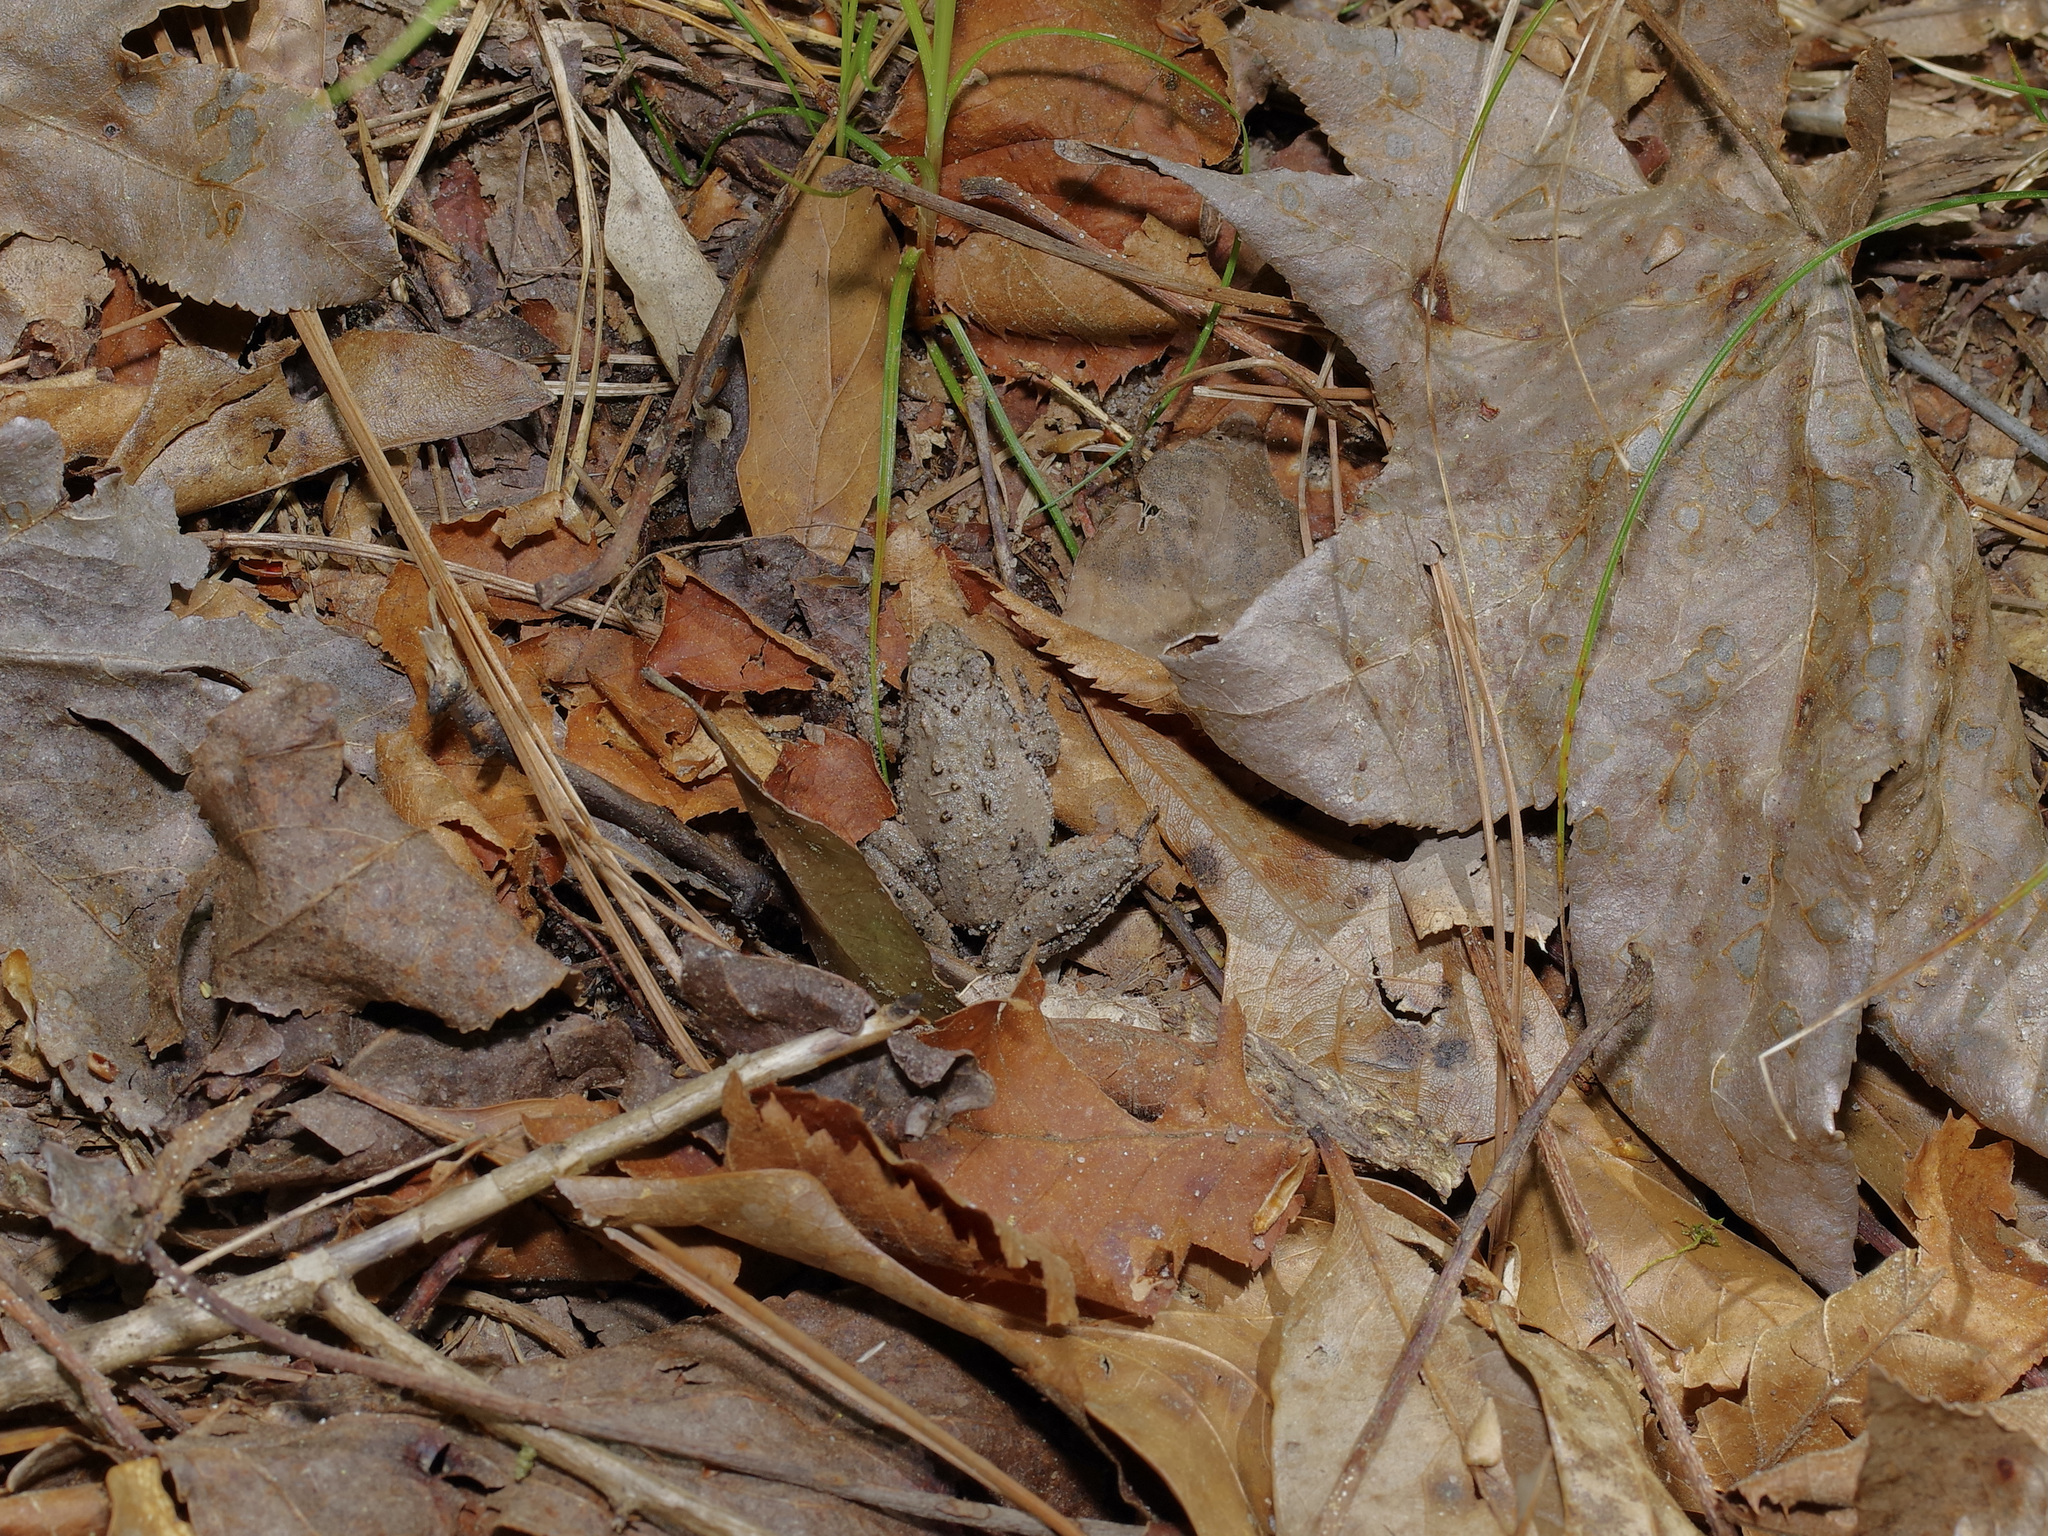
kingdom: Animalia
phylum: Chordata
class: Amphibia
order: Anura
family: Hylidae
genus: Acris
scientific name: Acris blanchardi
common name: Blanchard's cricket frog
